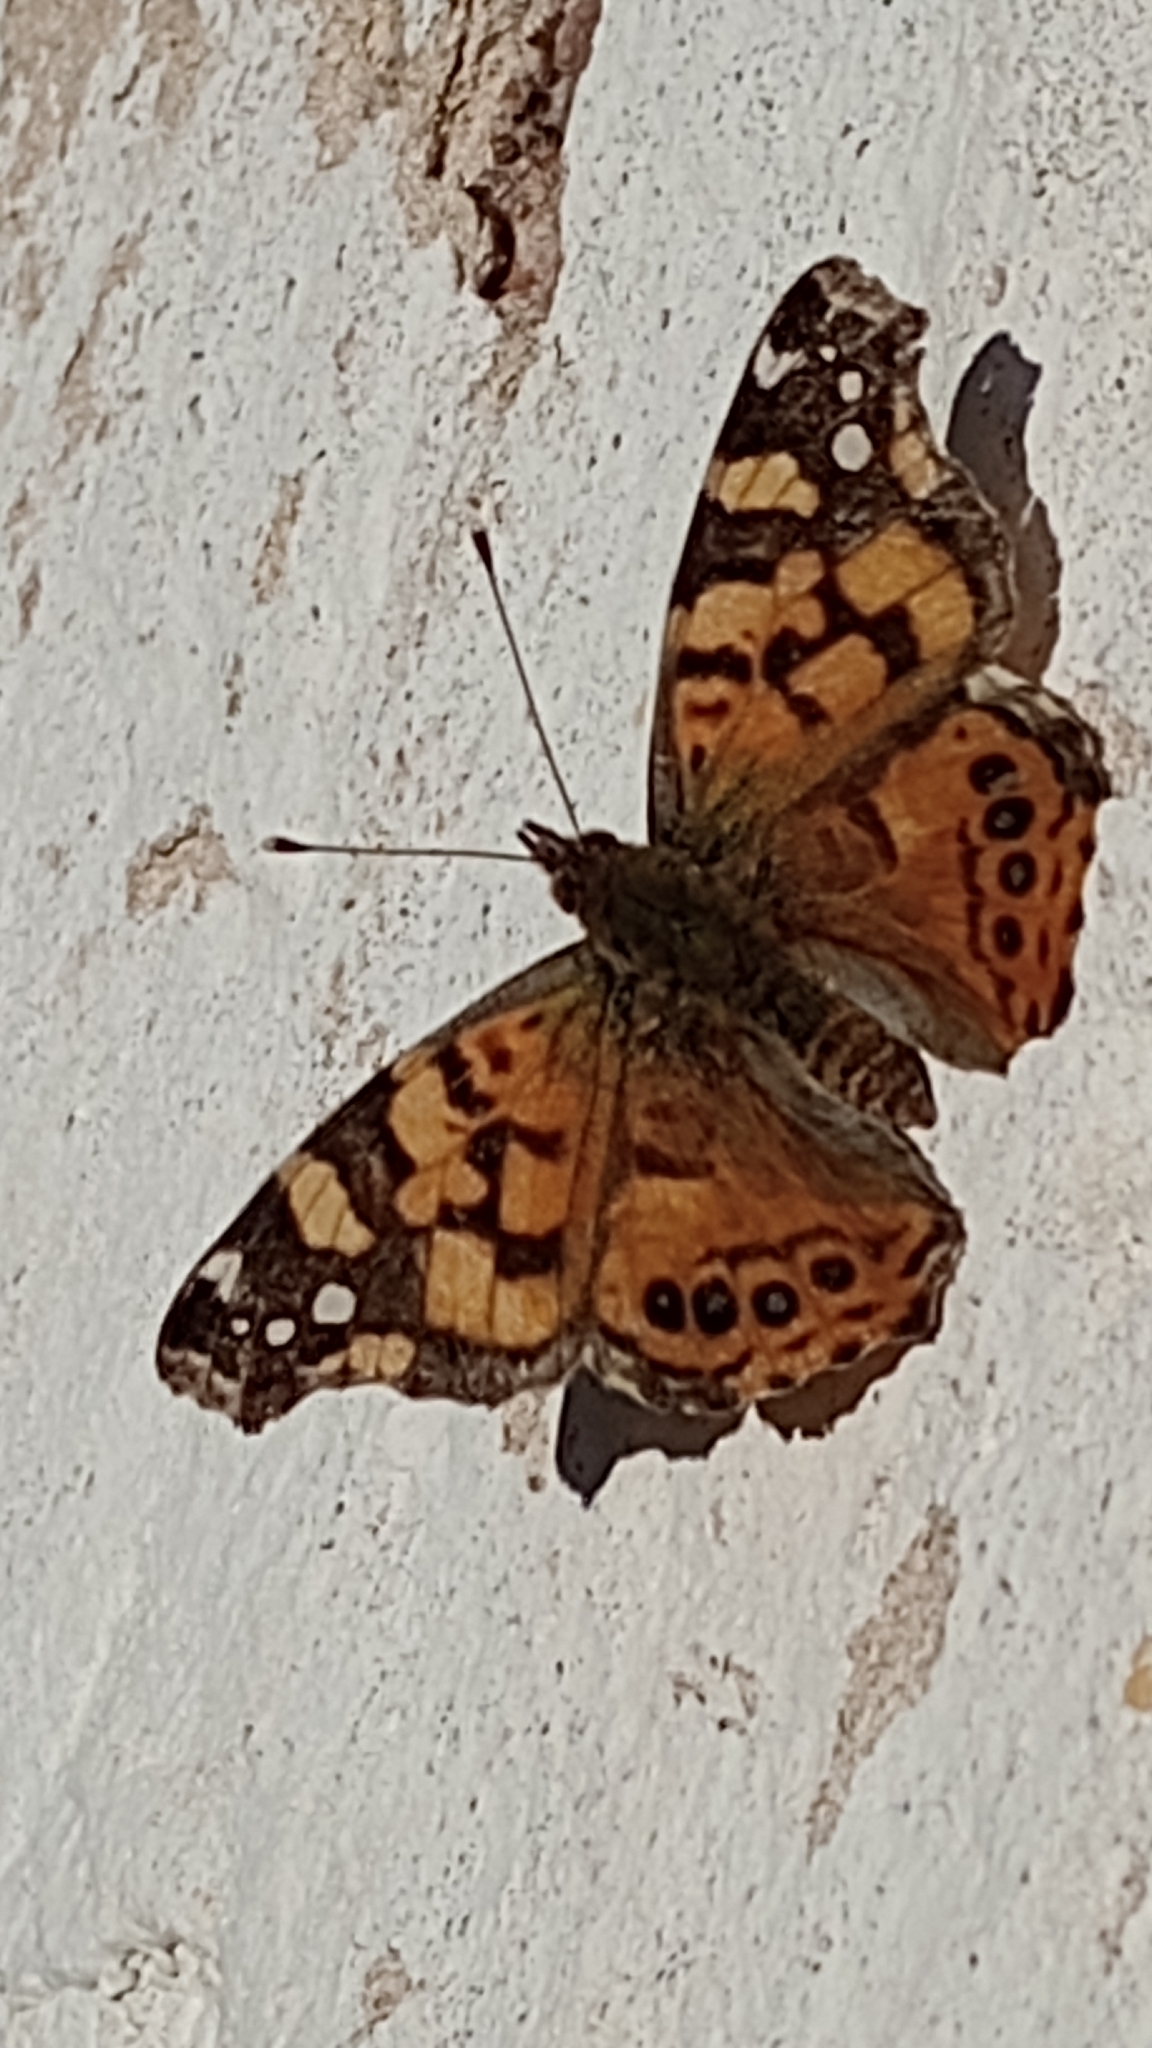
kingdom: Animalia
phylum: Arthropoda
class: Insecta
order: Lepidoptera
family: Nymphalidae
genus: Vanessa
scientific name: Vanessa carye
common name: Subtropical lady
